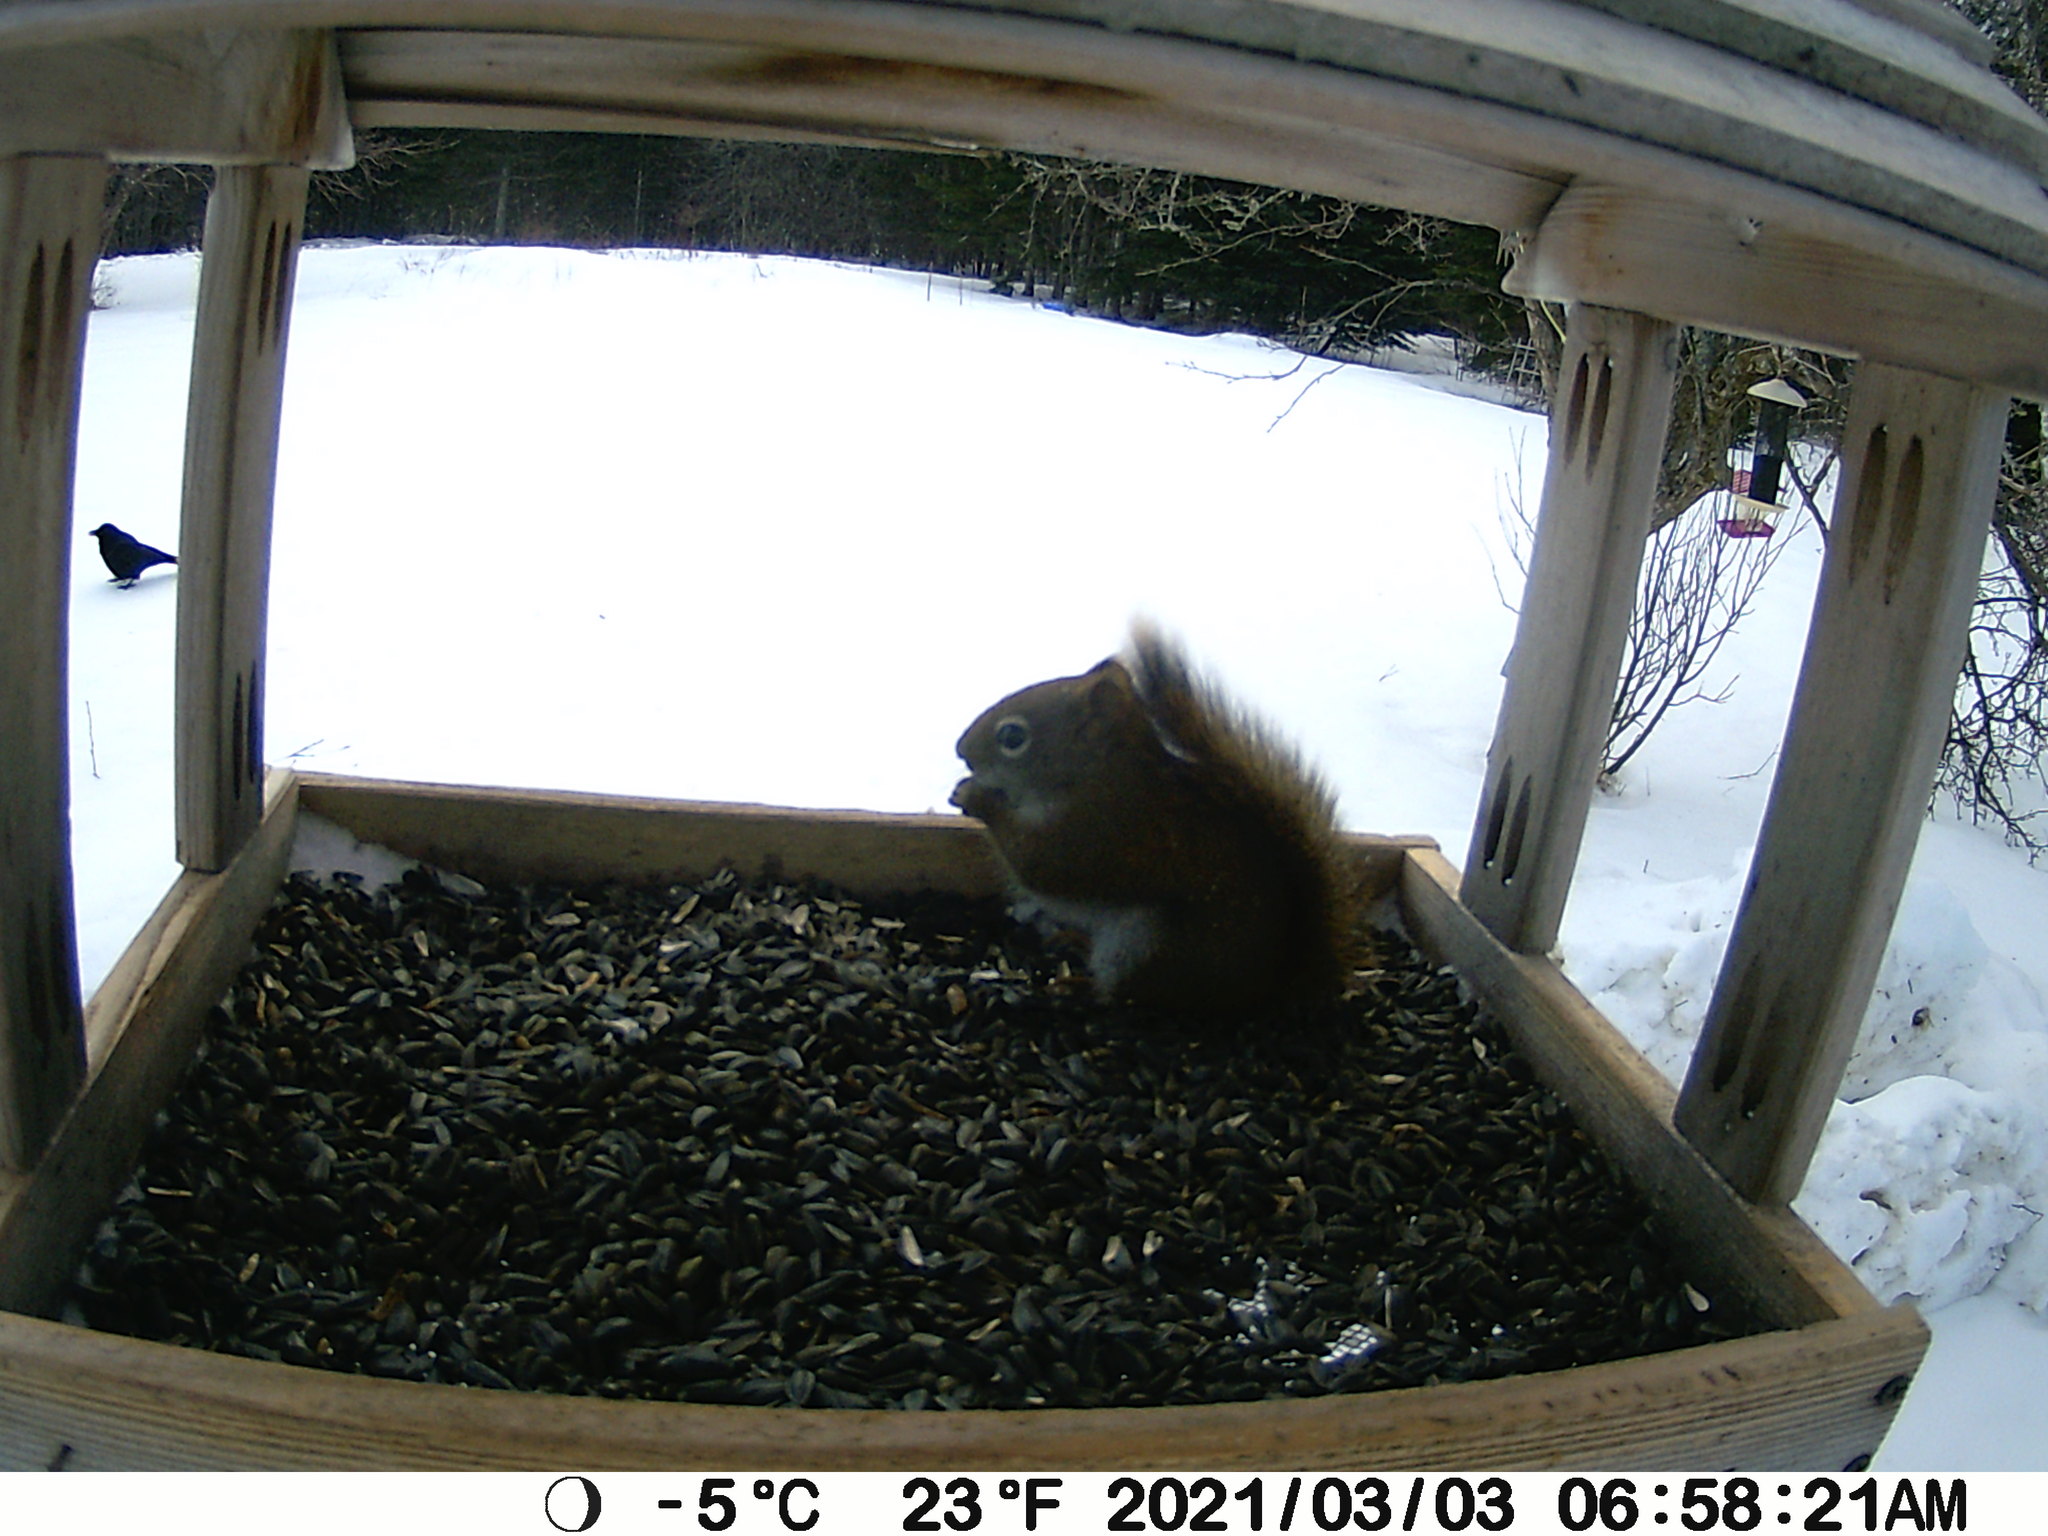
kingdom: Animalia
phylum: Chordata
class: Aves
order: Passeriformes
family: Corvidae
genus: Corvus
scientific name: Corvus brachyrhynchos
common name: American crow
